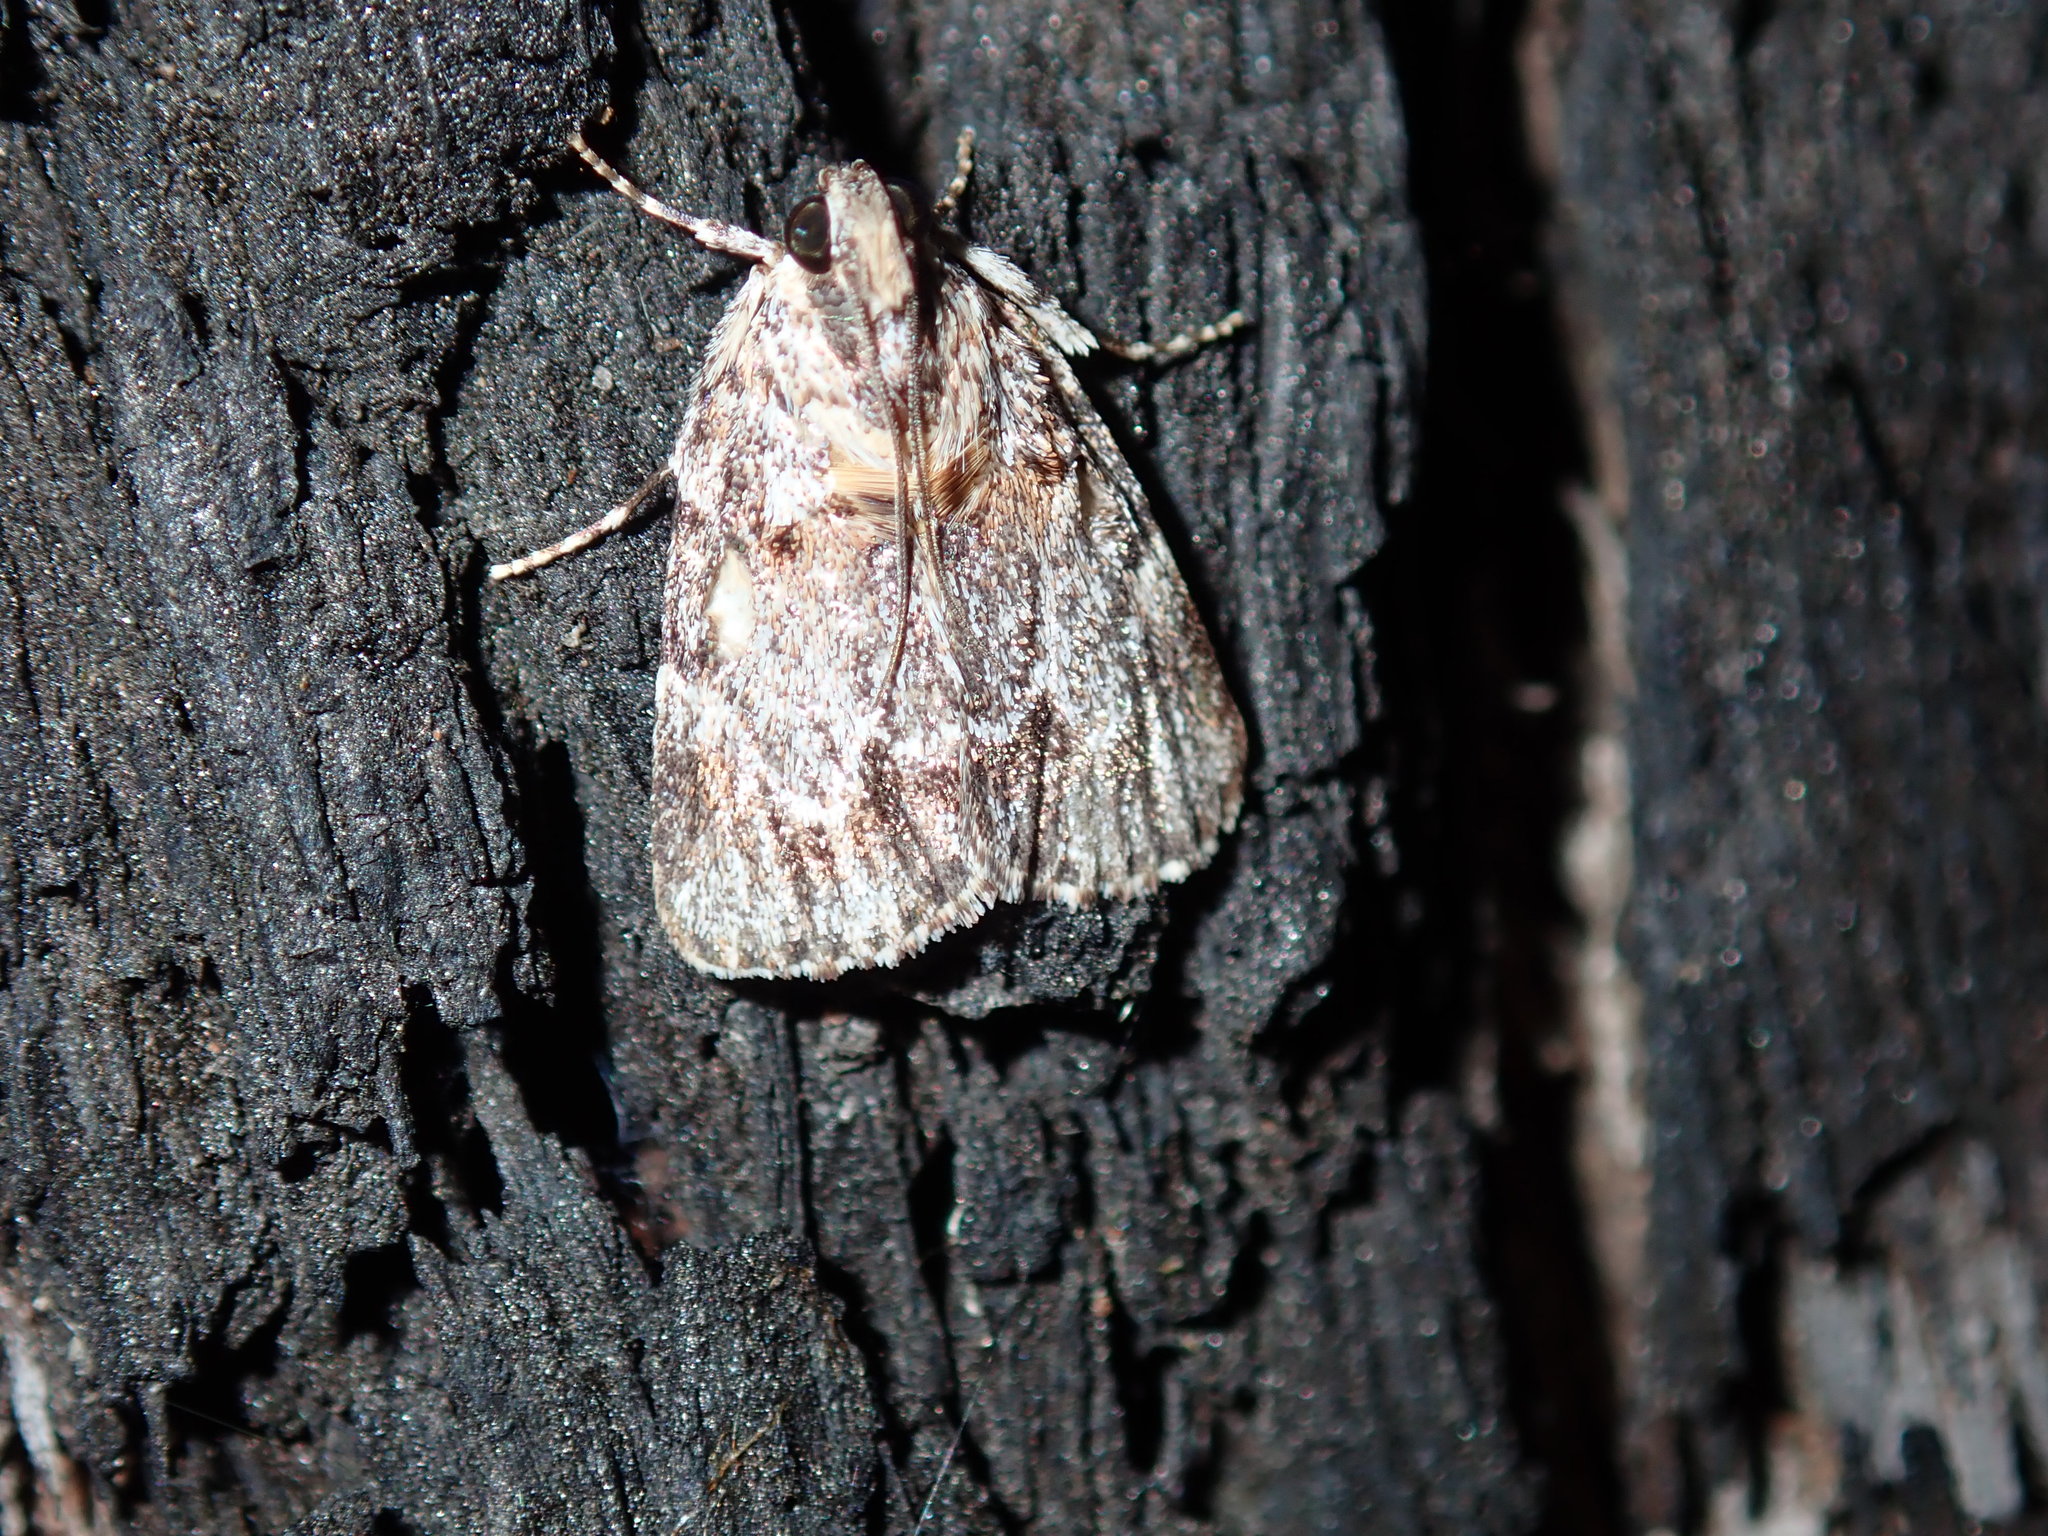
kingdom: Animalia
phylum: Arthropoda
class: Insecta
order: Lepidoptera
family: Pyralidae
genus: Spectrotrota
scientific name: Spectrotrota fimbrialis
